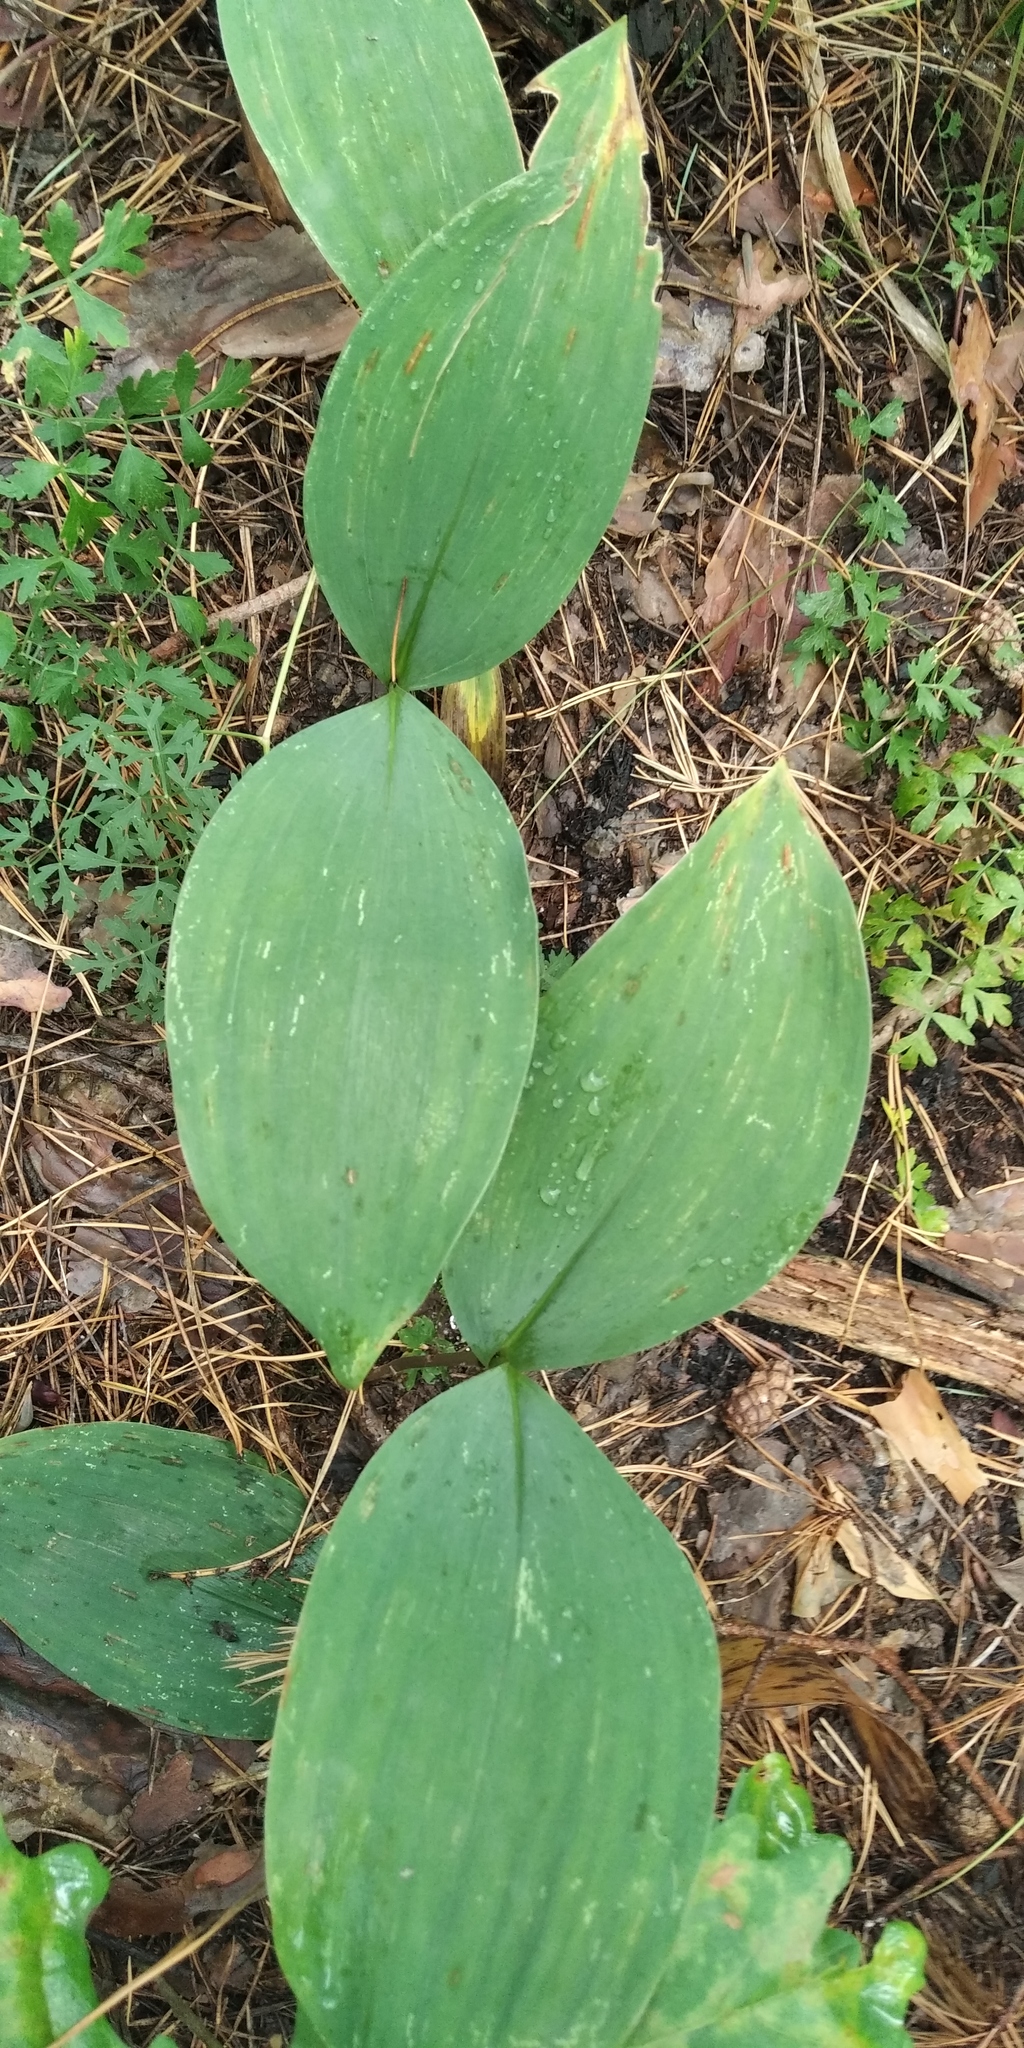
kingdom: Plantae
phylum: Tracheophyta
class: Liliopsida
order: Asparagales
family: Asparagaceae
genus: Convallaria
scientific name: Convallaria majalis
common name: Lily-of-the-valley
